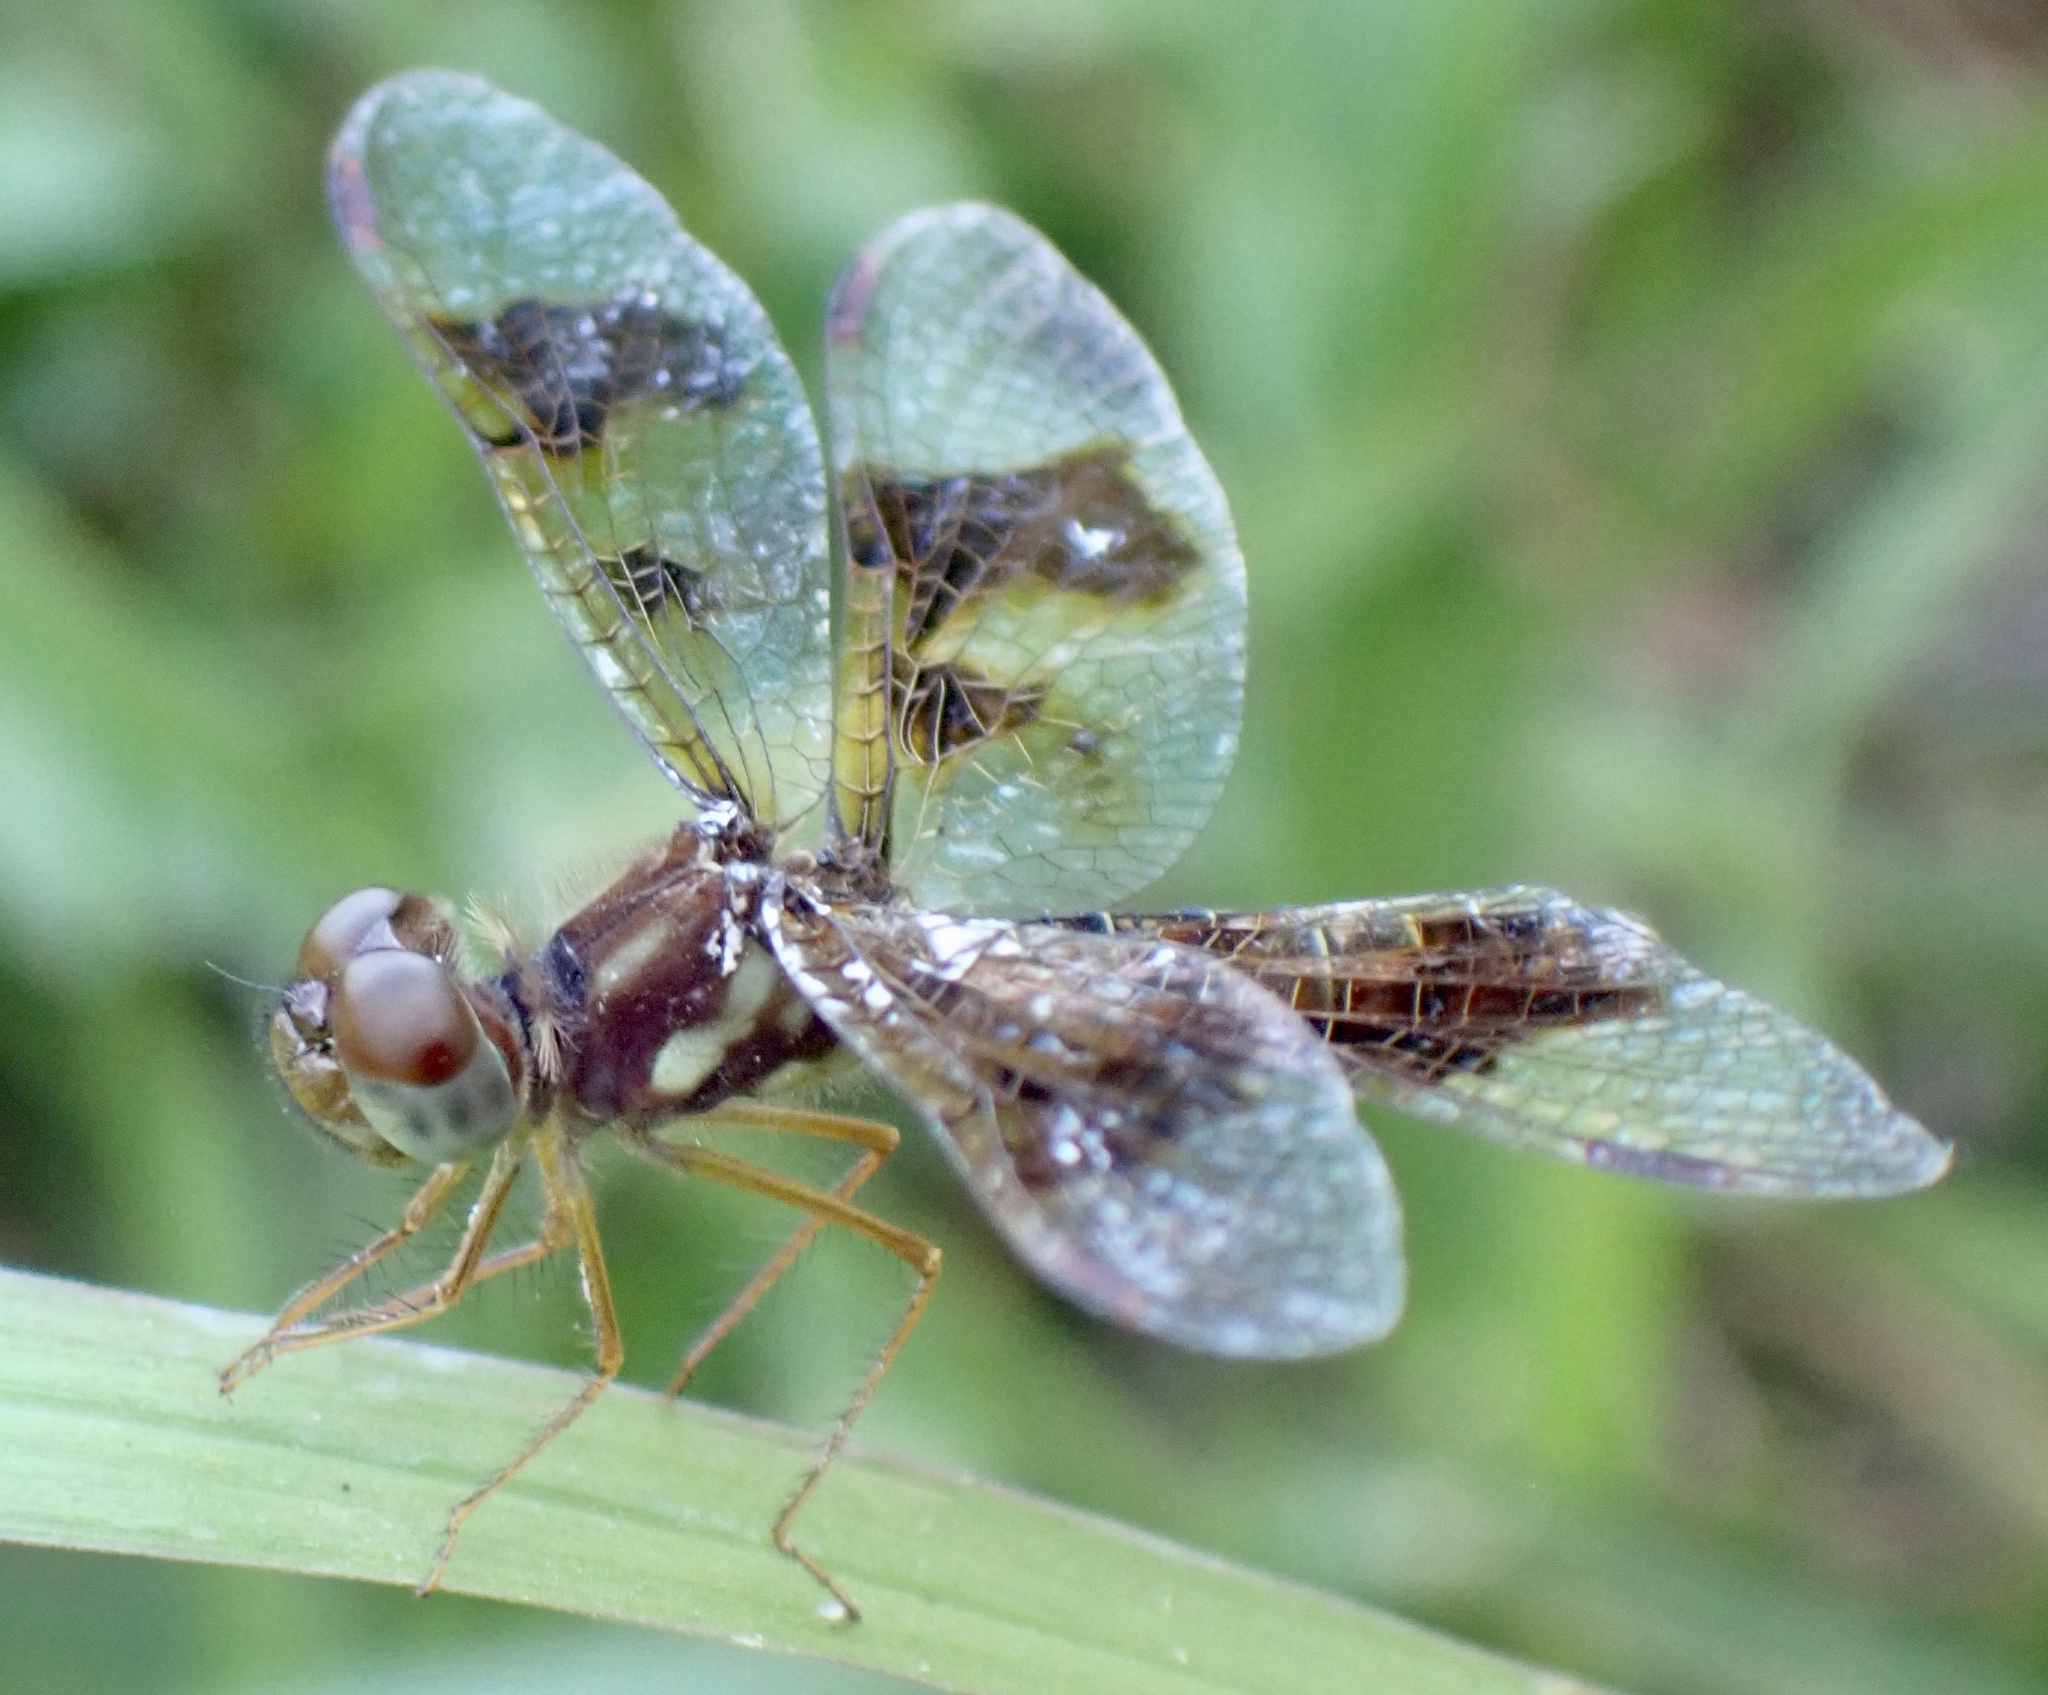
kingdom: Animalia
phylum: Arthropoda
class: Insecta
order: Odonata
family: Libellulidae
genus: Perithemis
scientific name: Perithemis tenera
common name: Eastern amberwing
